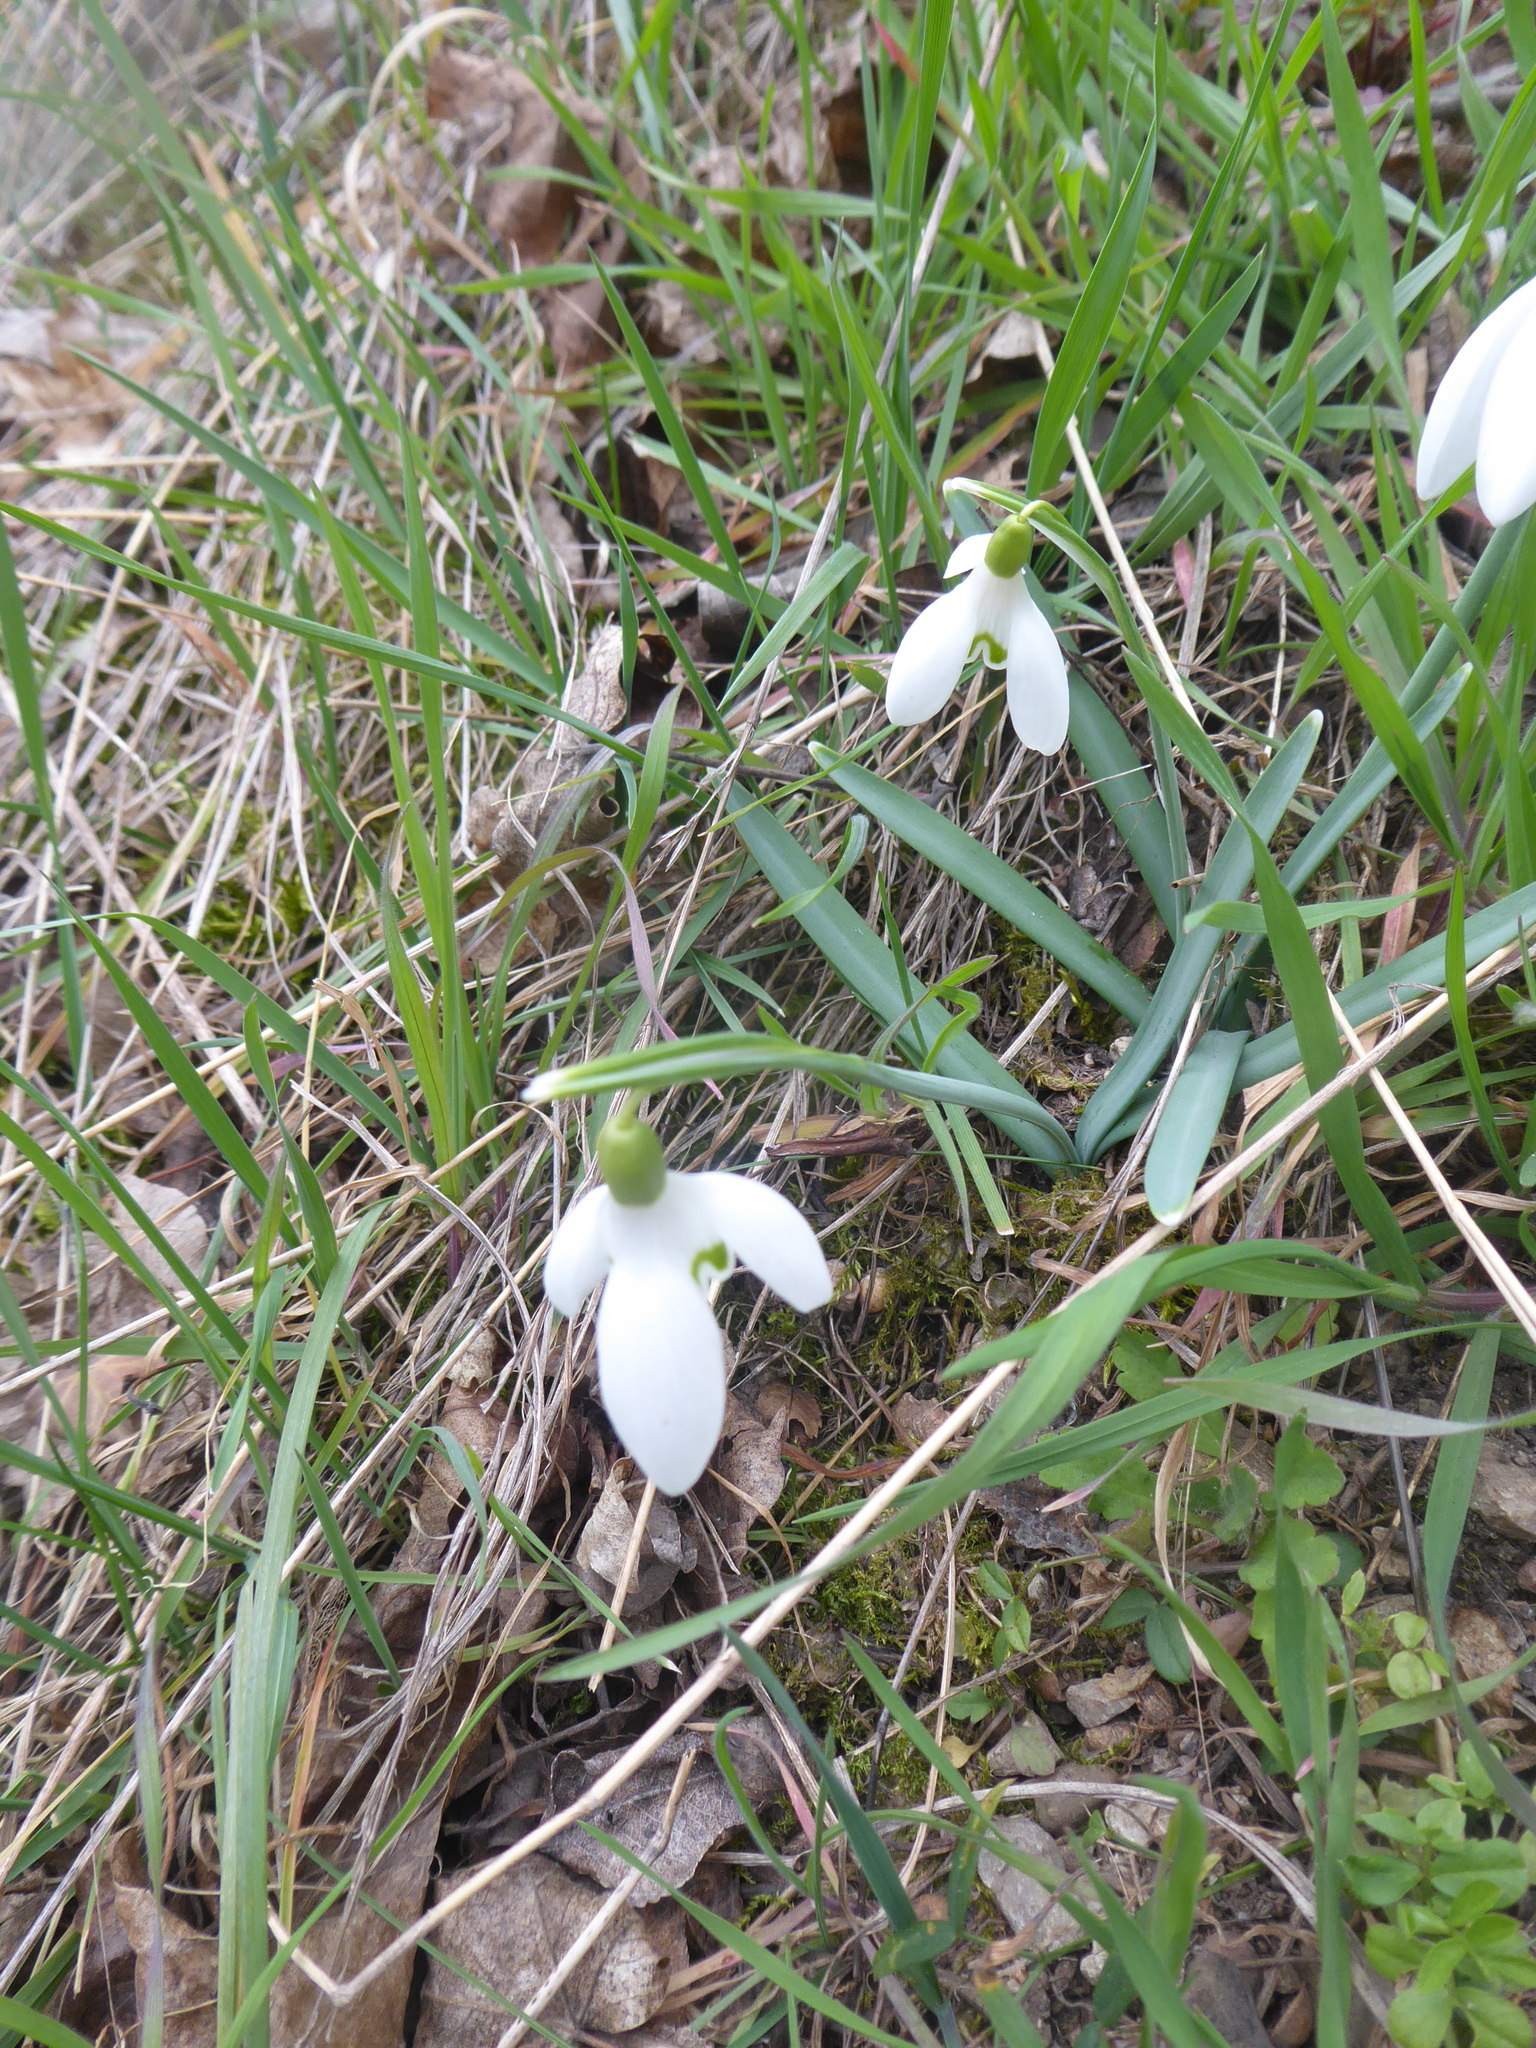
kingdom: Plantae
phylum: Tracheophyta
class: Liliopsida
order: Asparagales
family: Amaryllidaceae
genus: Galanthus
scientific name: Galanthus nivalis
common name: Snowdrop
